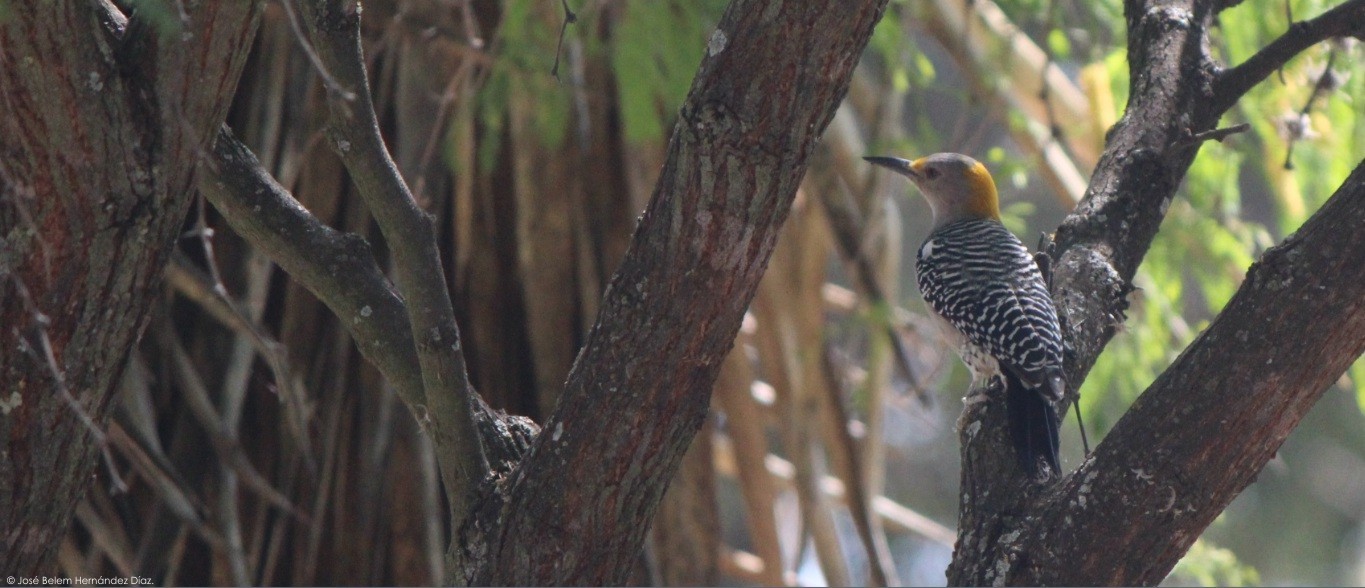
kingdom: Animalia
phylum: Chordata
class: Aves
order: Piciformes
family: Picidae
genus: Melanerpes
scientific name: Melanerpes aurifrons
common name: Golden-fronted woodpecker
